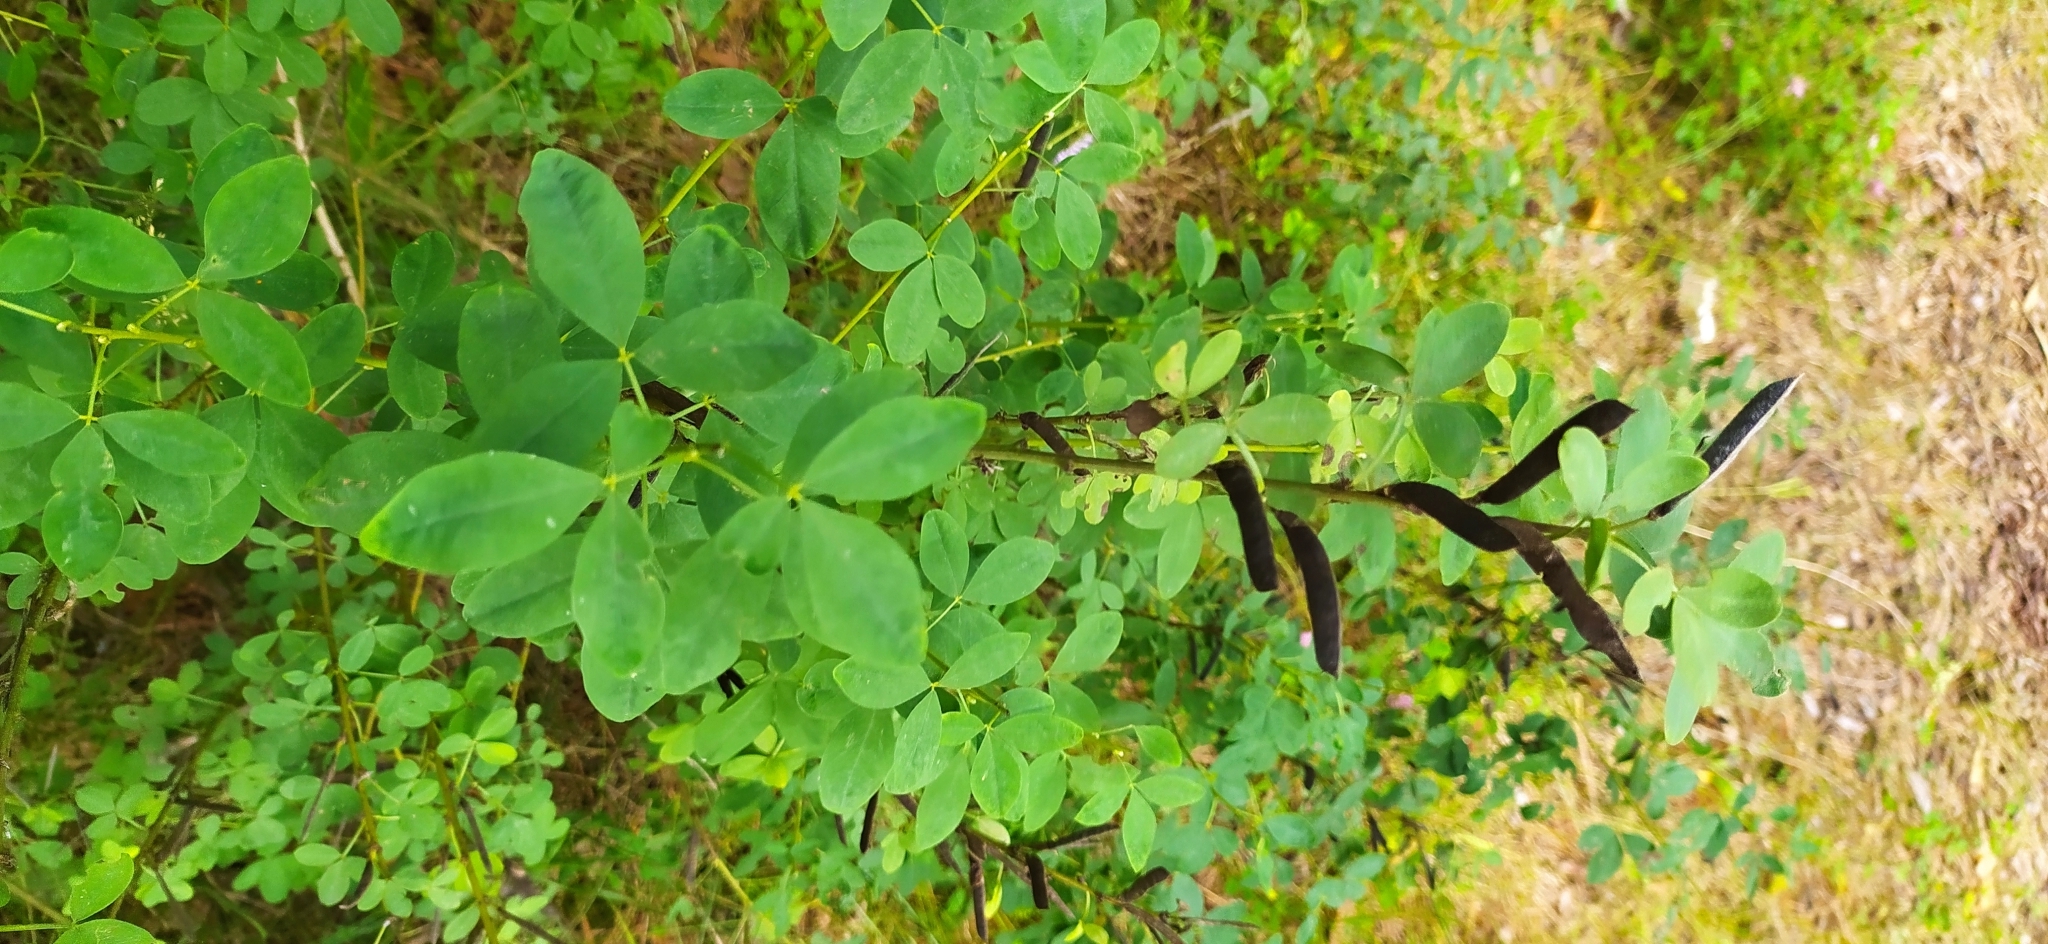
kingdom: Plantae
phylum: Tracheophyta
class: Magnoliopsida
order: Fabales
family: Fabaceae
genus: Chamaecytisus
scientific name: Chamaecytisus ruthenicus
